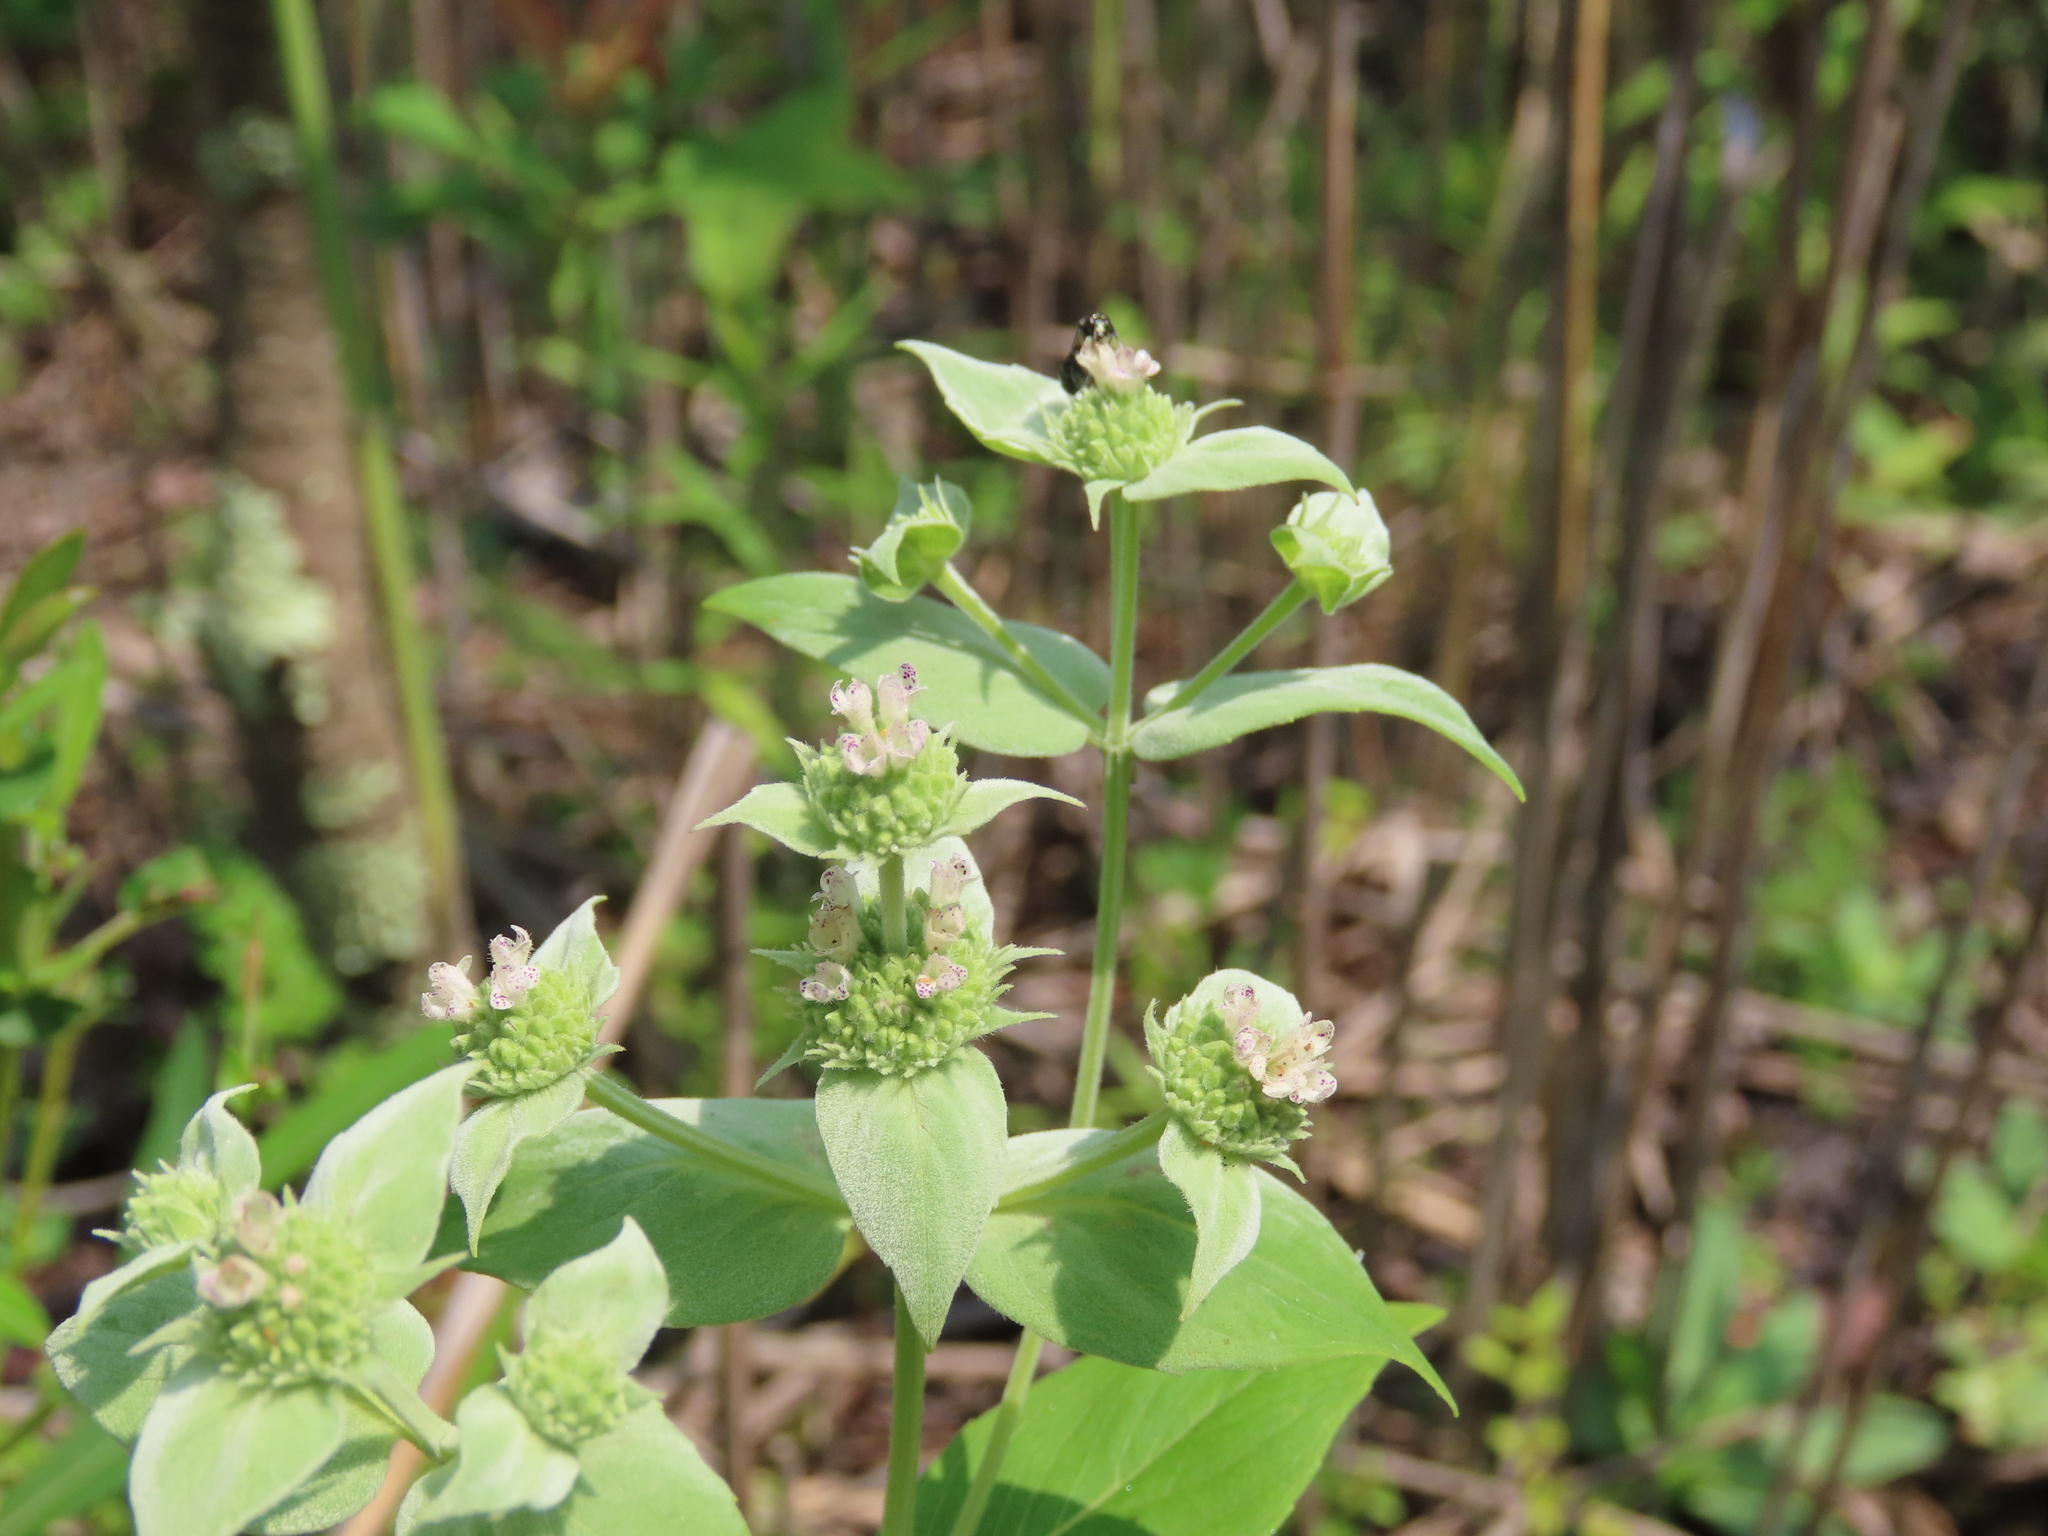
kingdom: Plantae
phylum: Tracheophyta
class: Magnoliopsida
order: Lamiales
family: Lamiaceae
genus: Pycnanthemum
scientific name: Pycnanthemum muticum
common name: Blunt mountain-mint
